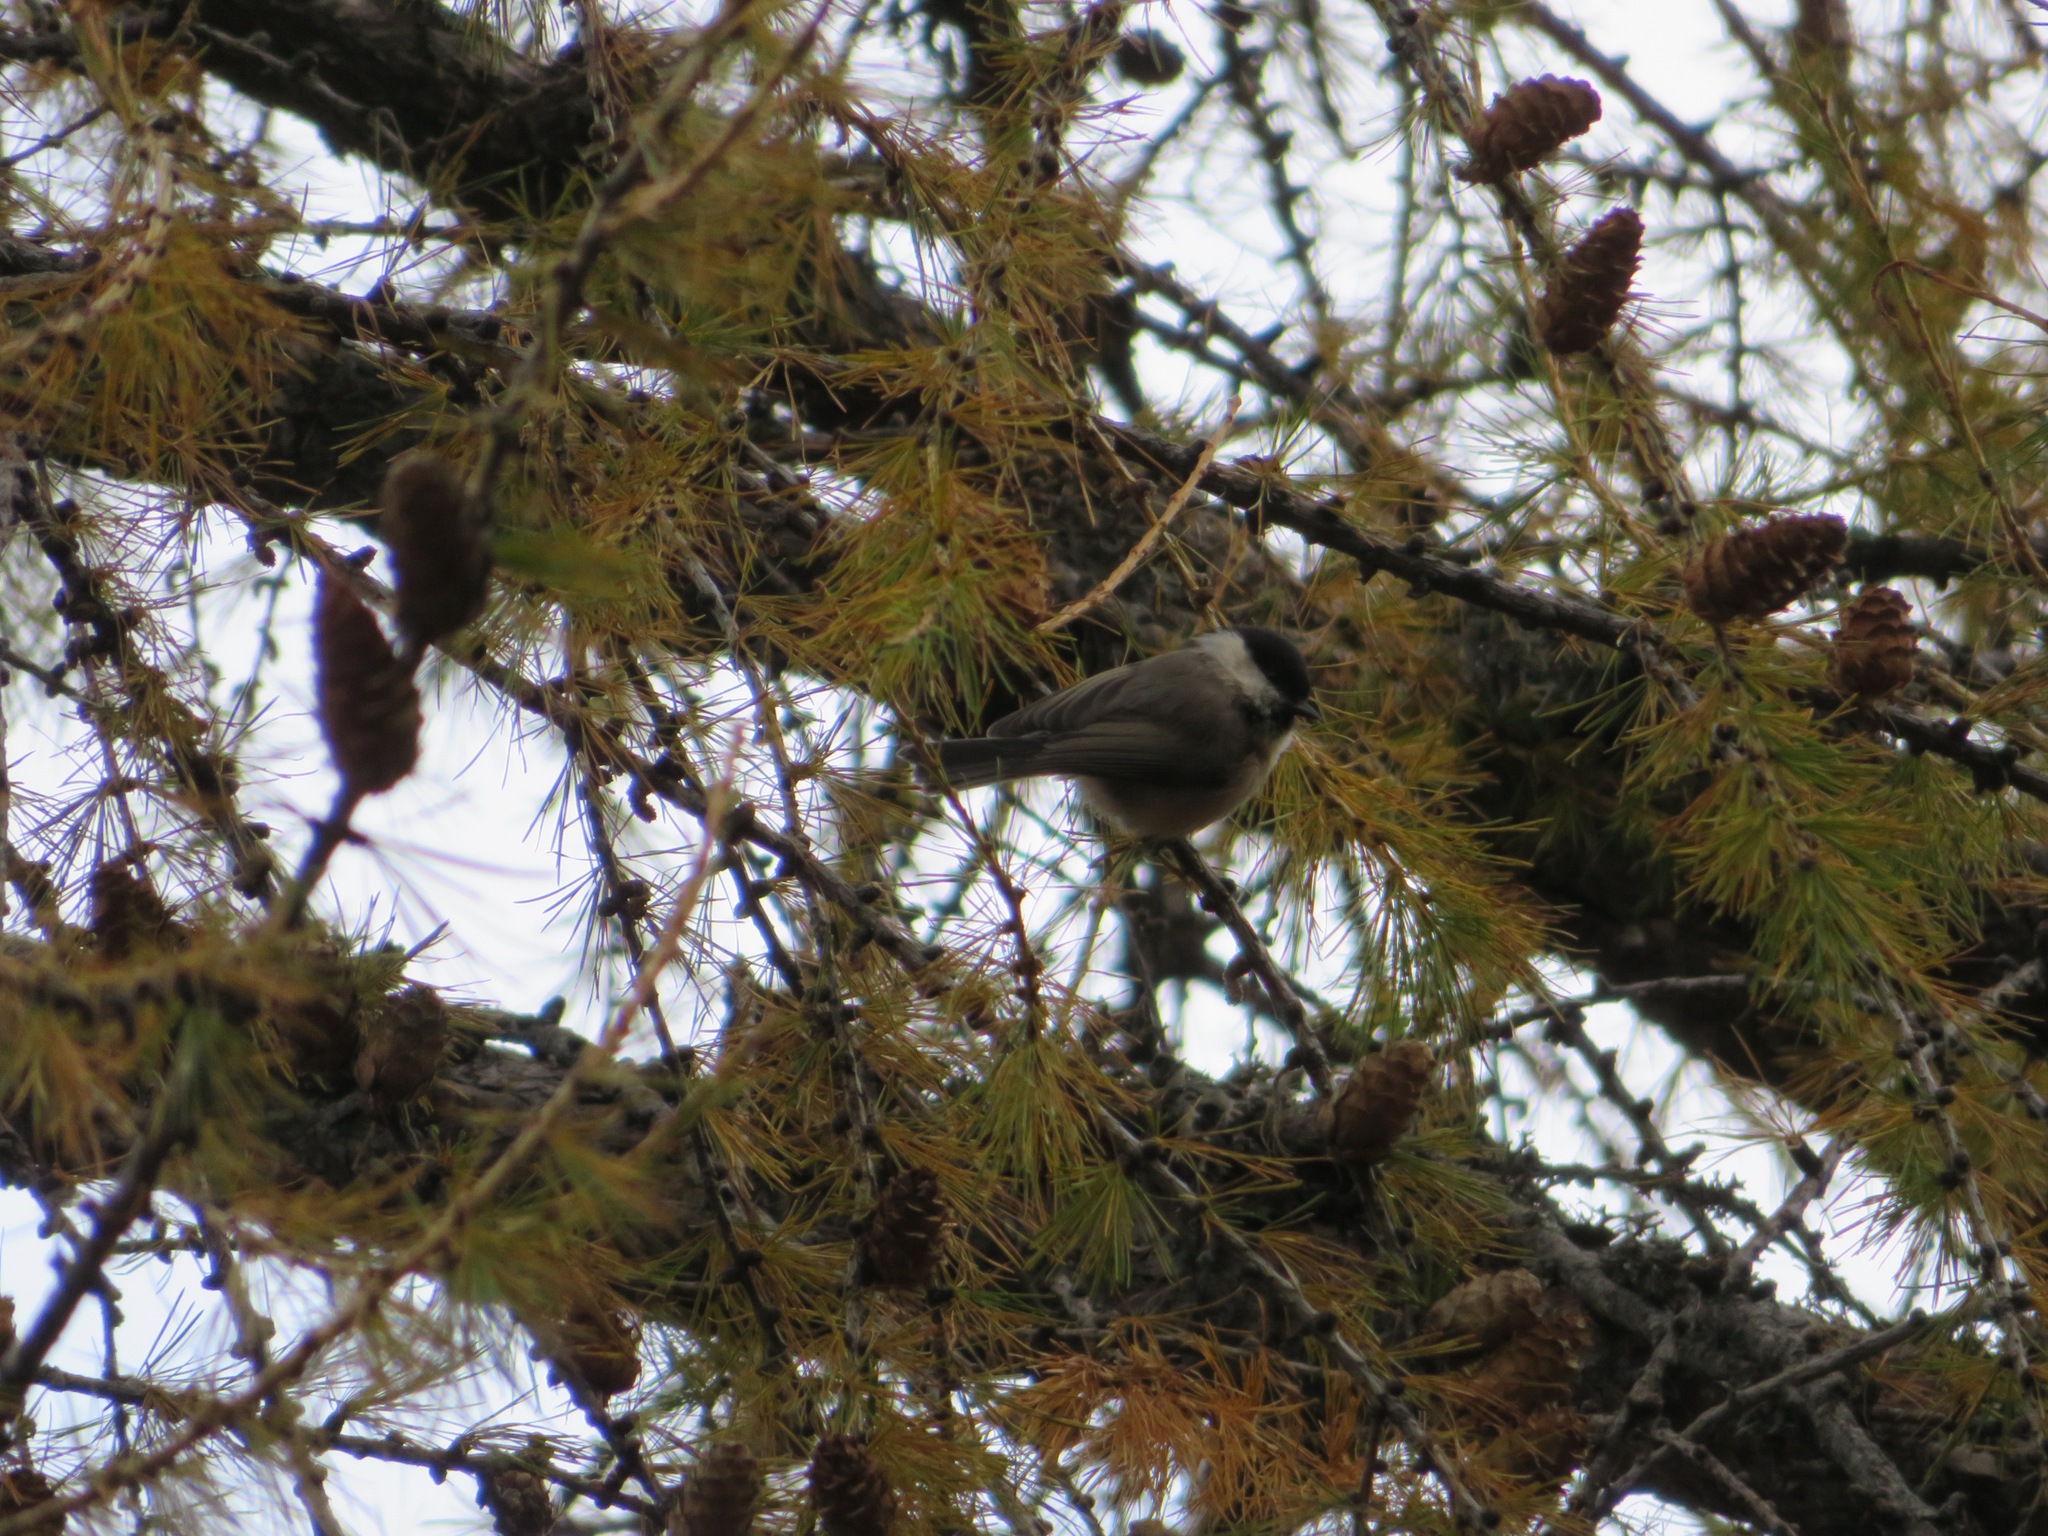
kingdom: Animalia
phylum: Chordata
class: Aves
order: Passeriformes
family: Paridae
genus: Poecile
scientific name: Poecile montanus
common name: Willow tit
